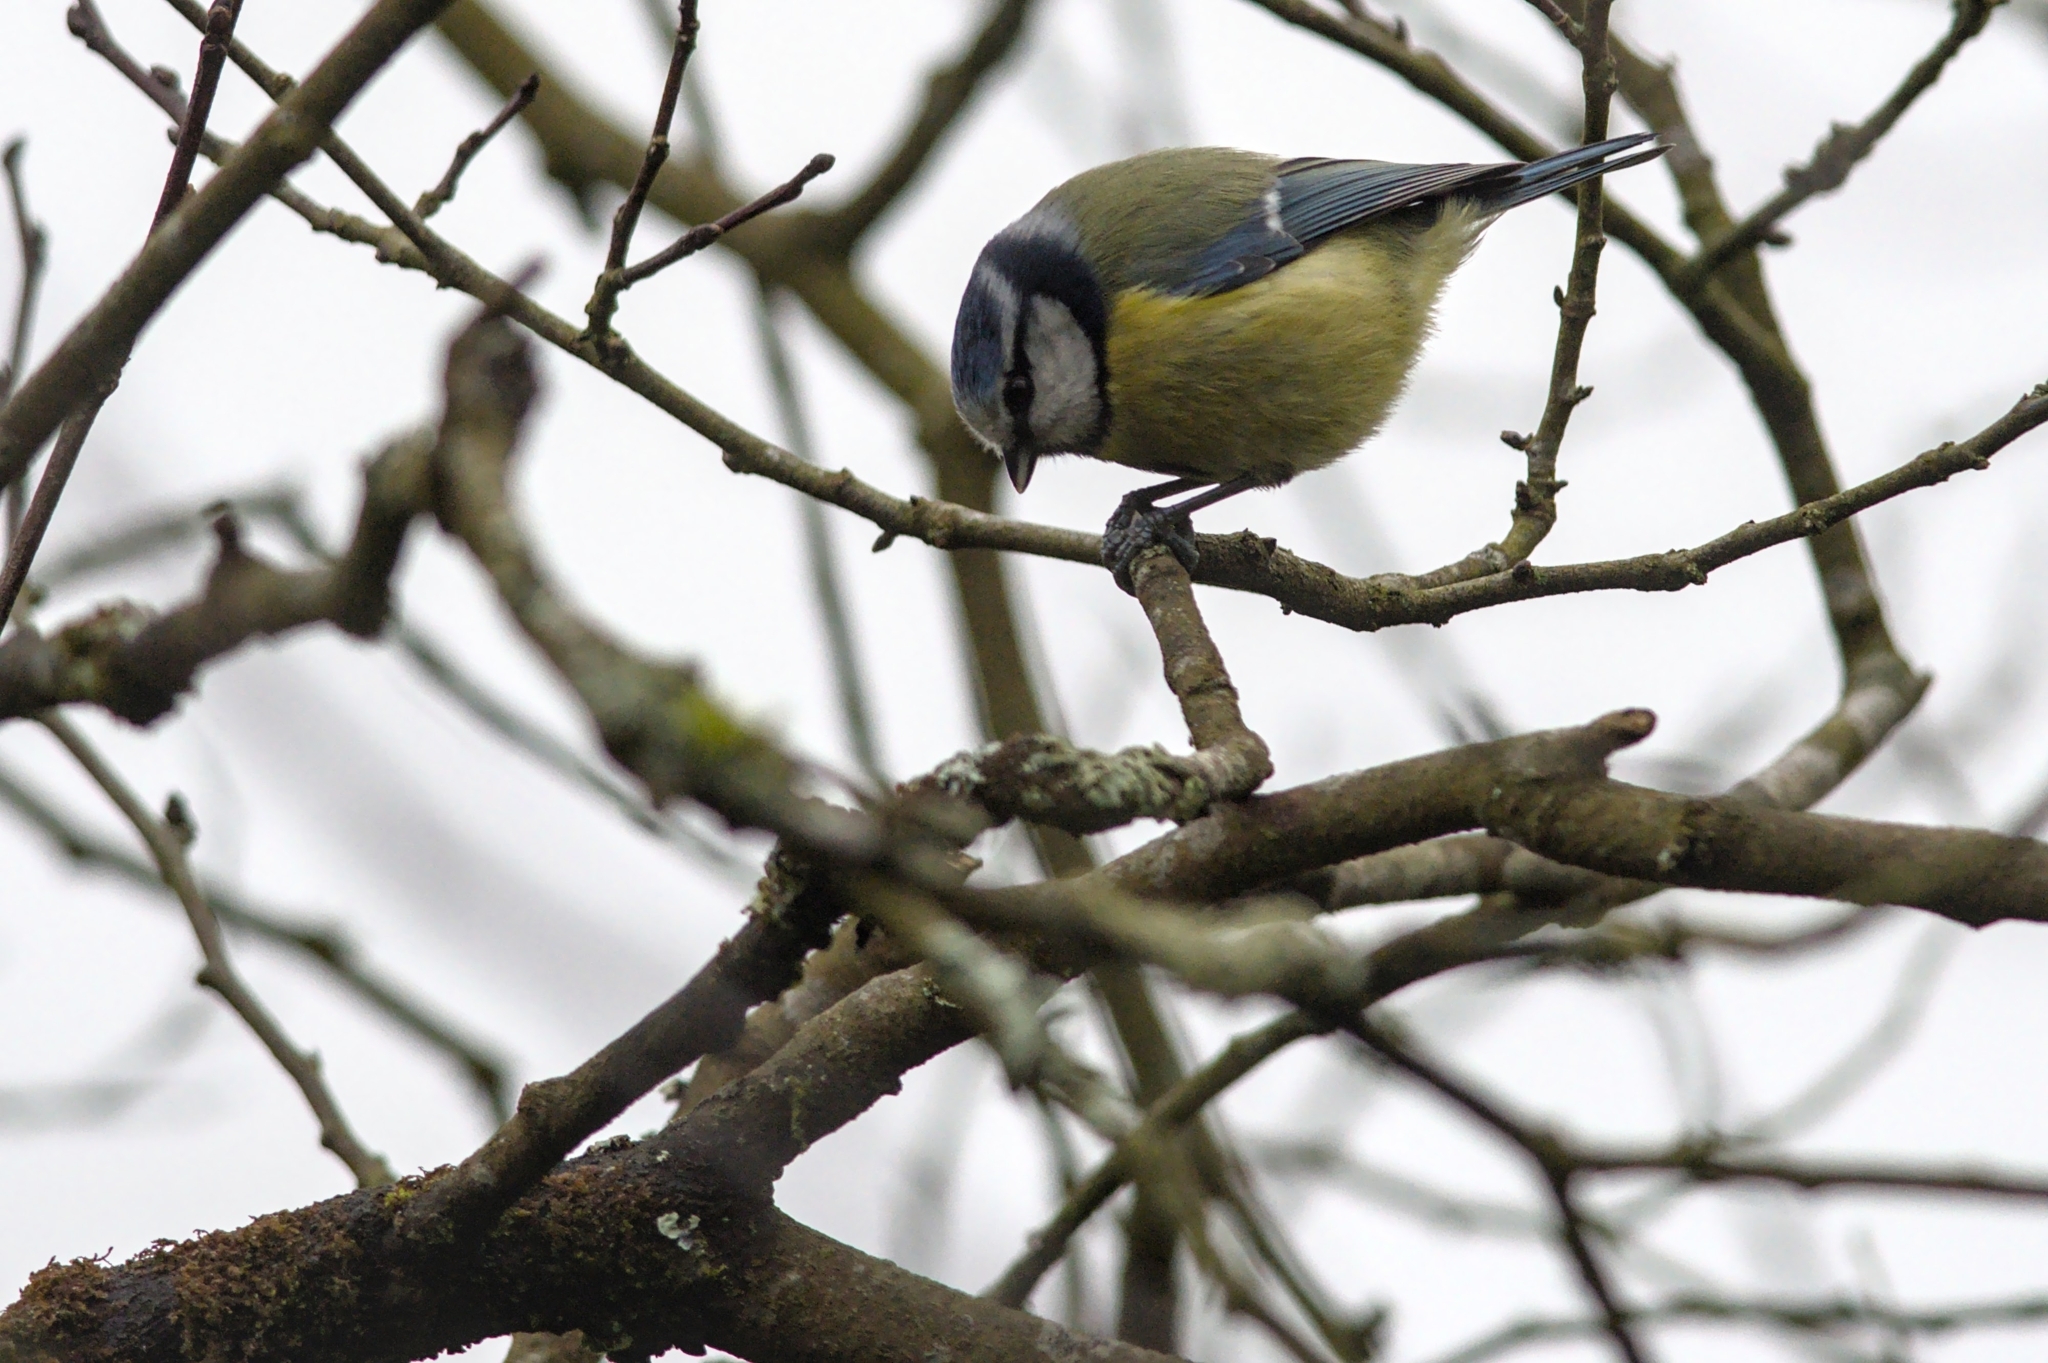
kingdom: Animalia
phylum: Chordata
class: Aves
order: Passeriformes
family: Paridae
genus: Cyanistes
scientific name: Cyanistes caeruleus
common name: Eurasian blue tit
